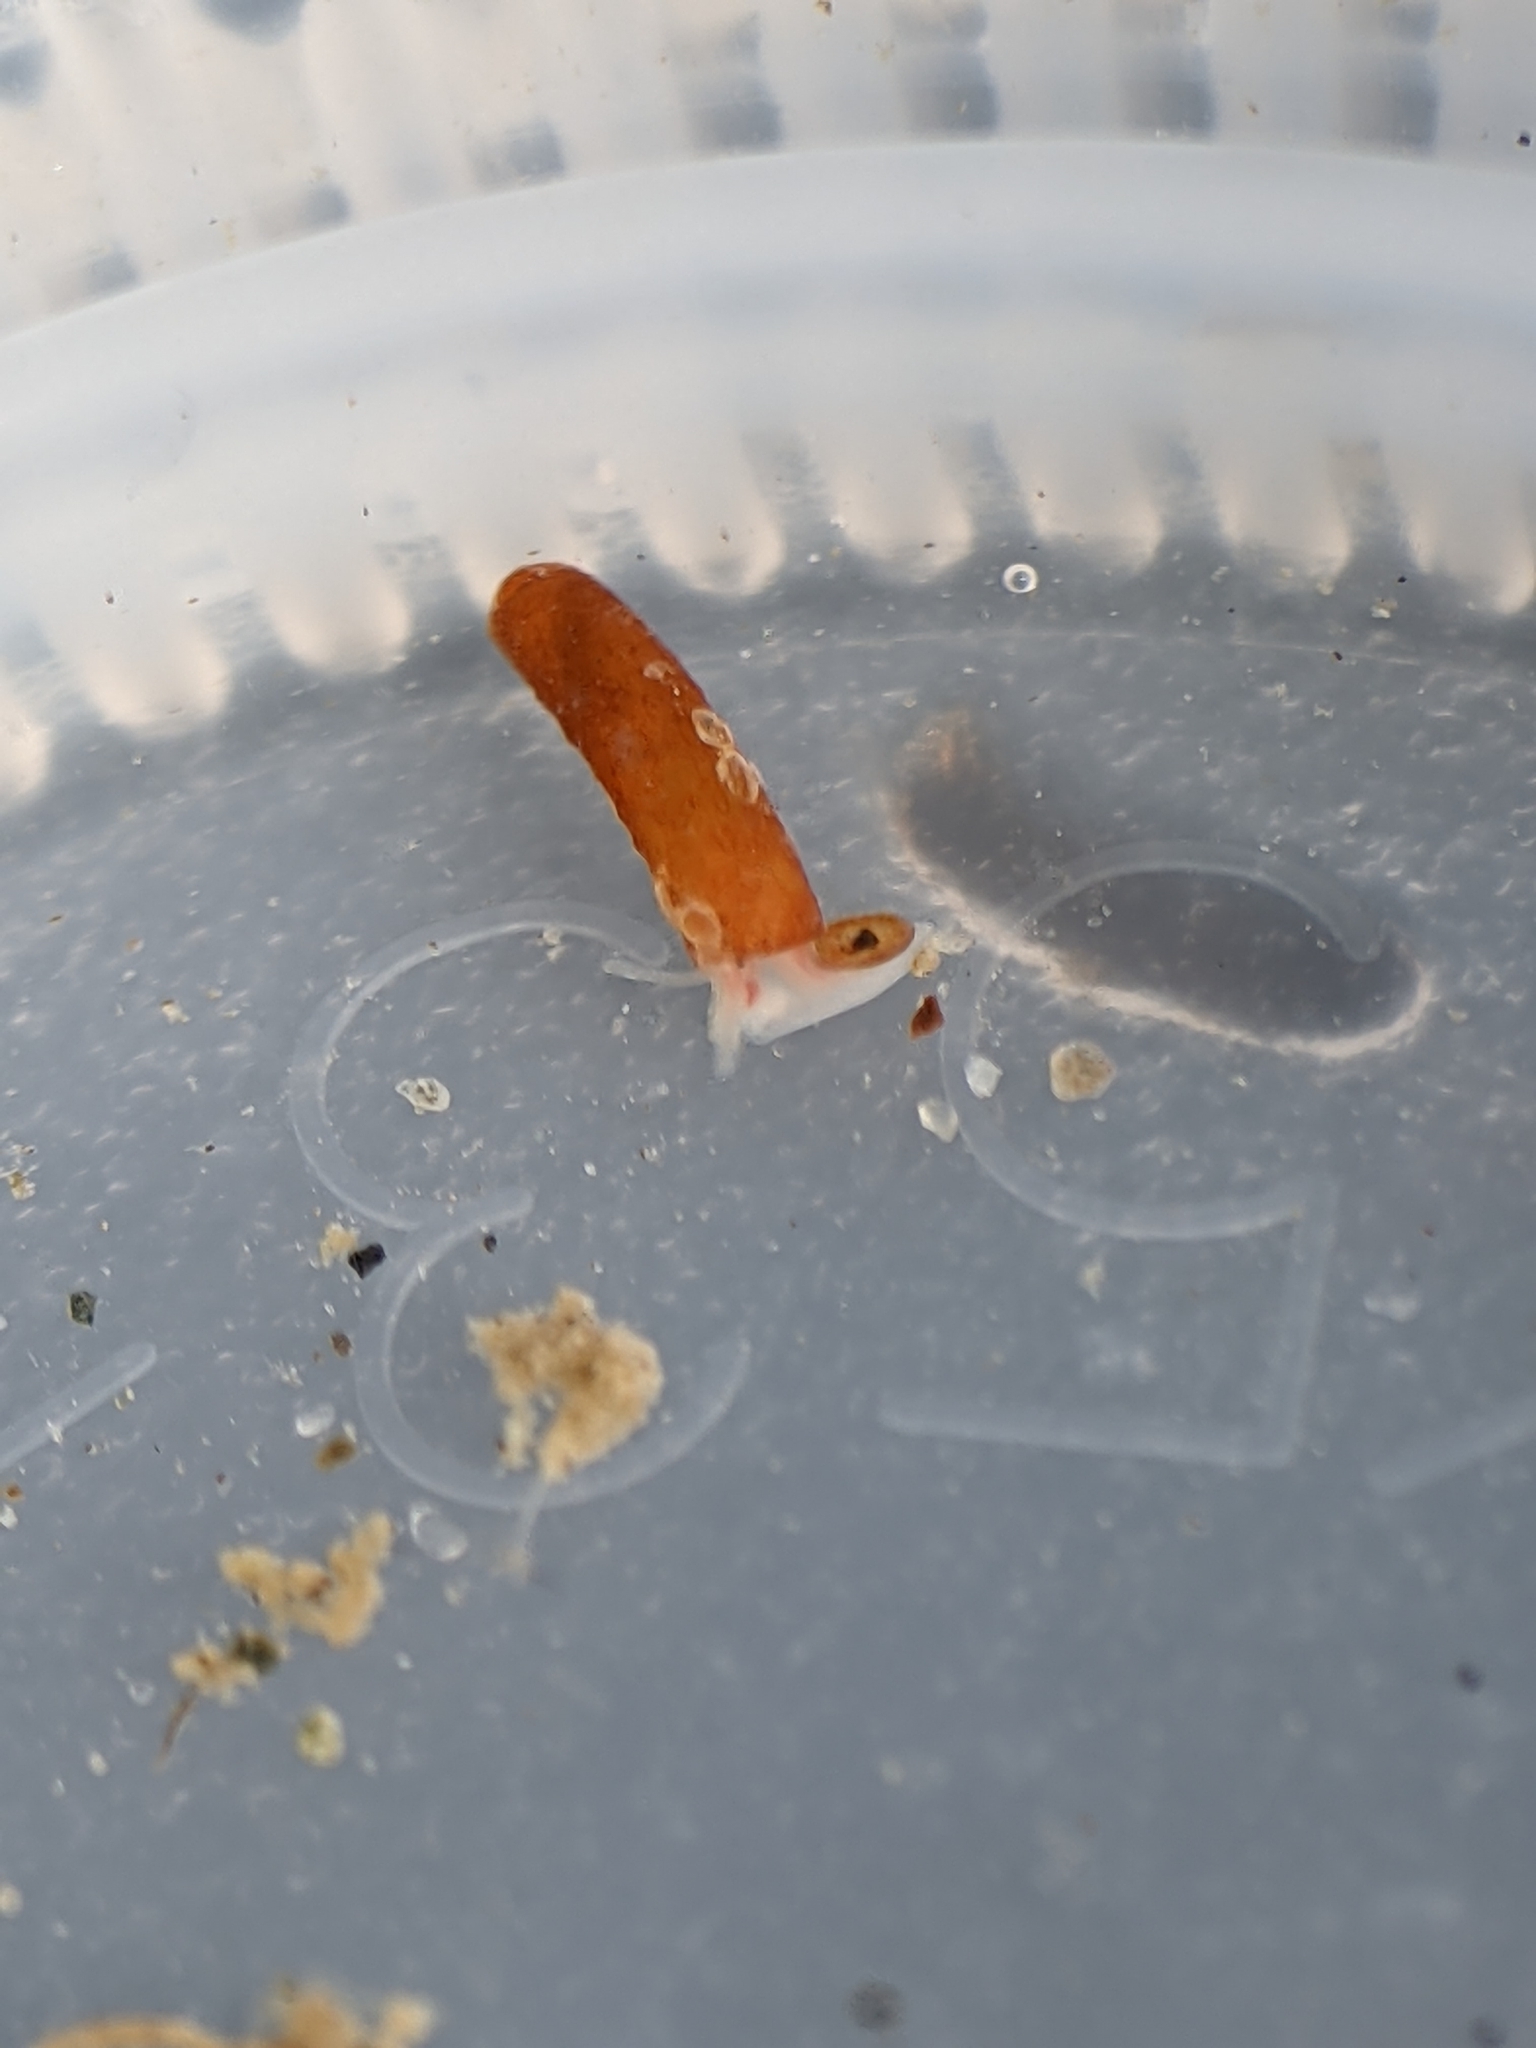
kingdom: Animalia
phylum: Mollusca
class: Gastropoda
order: Littorinimorpha
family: Caecidae
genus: Caecum
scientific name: Caecum dextroversum
